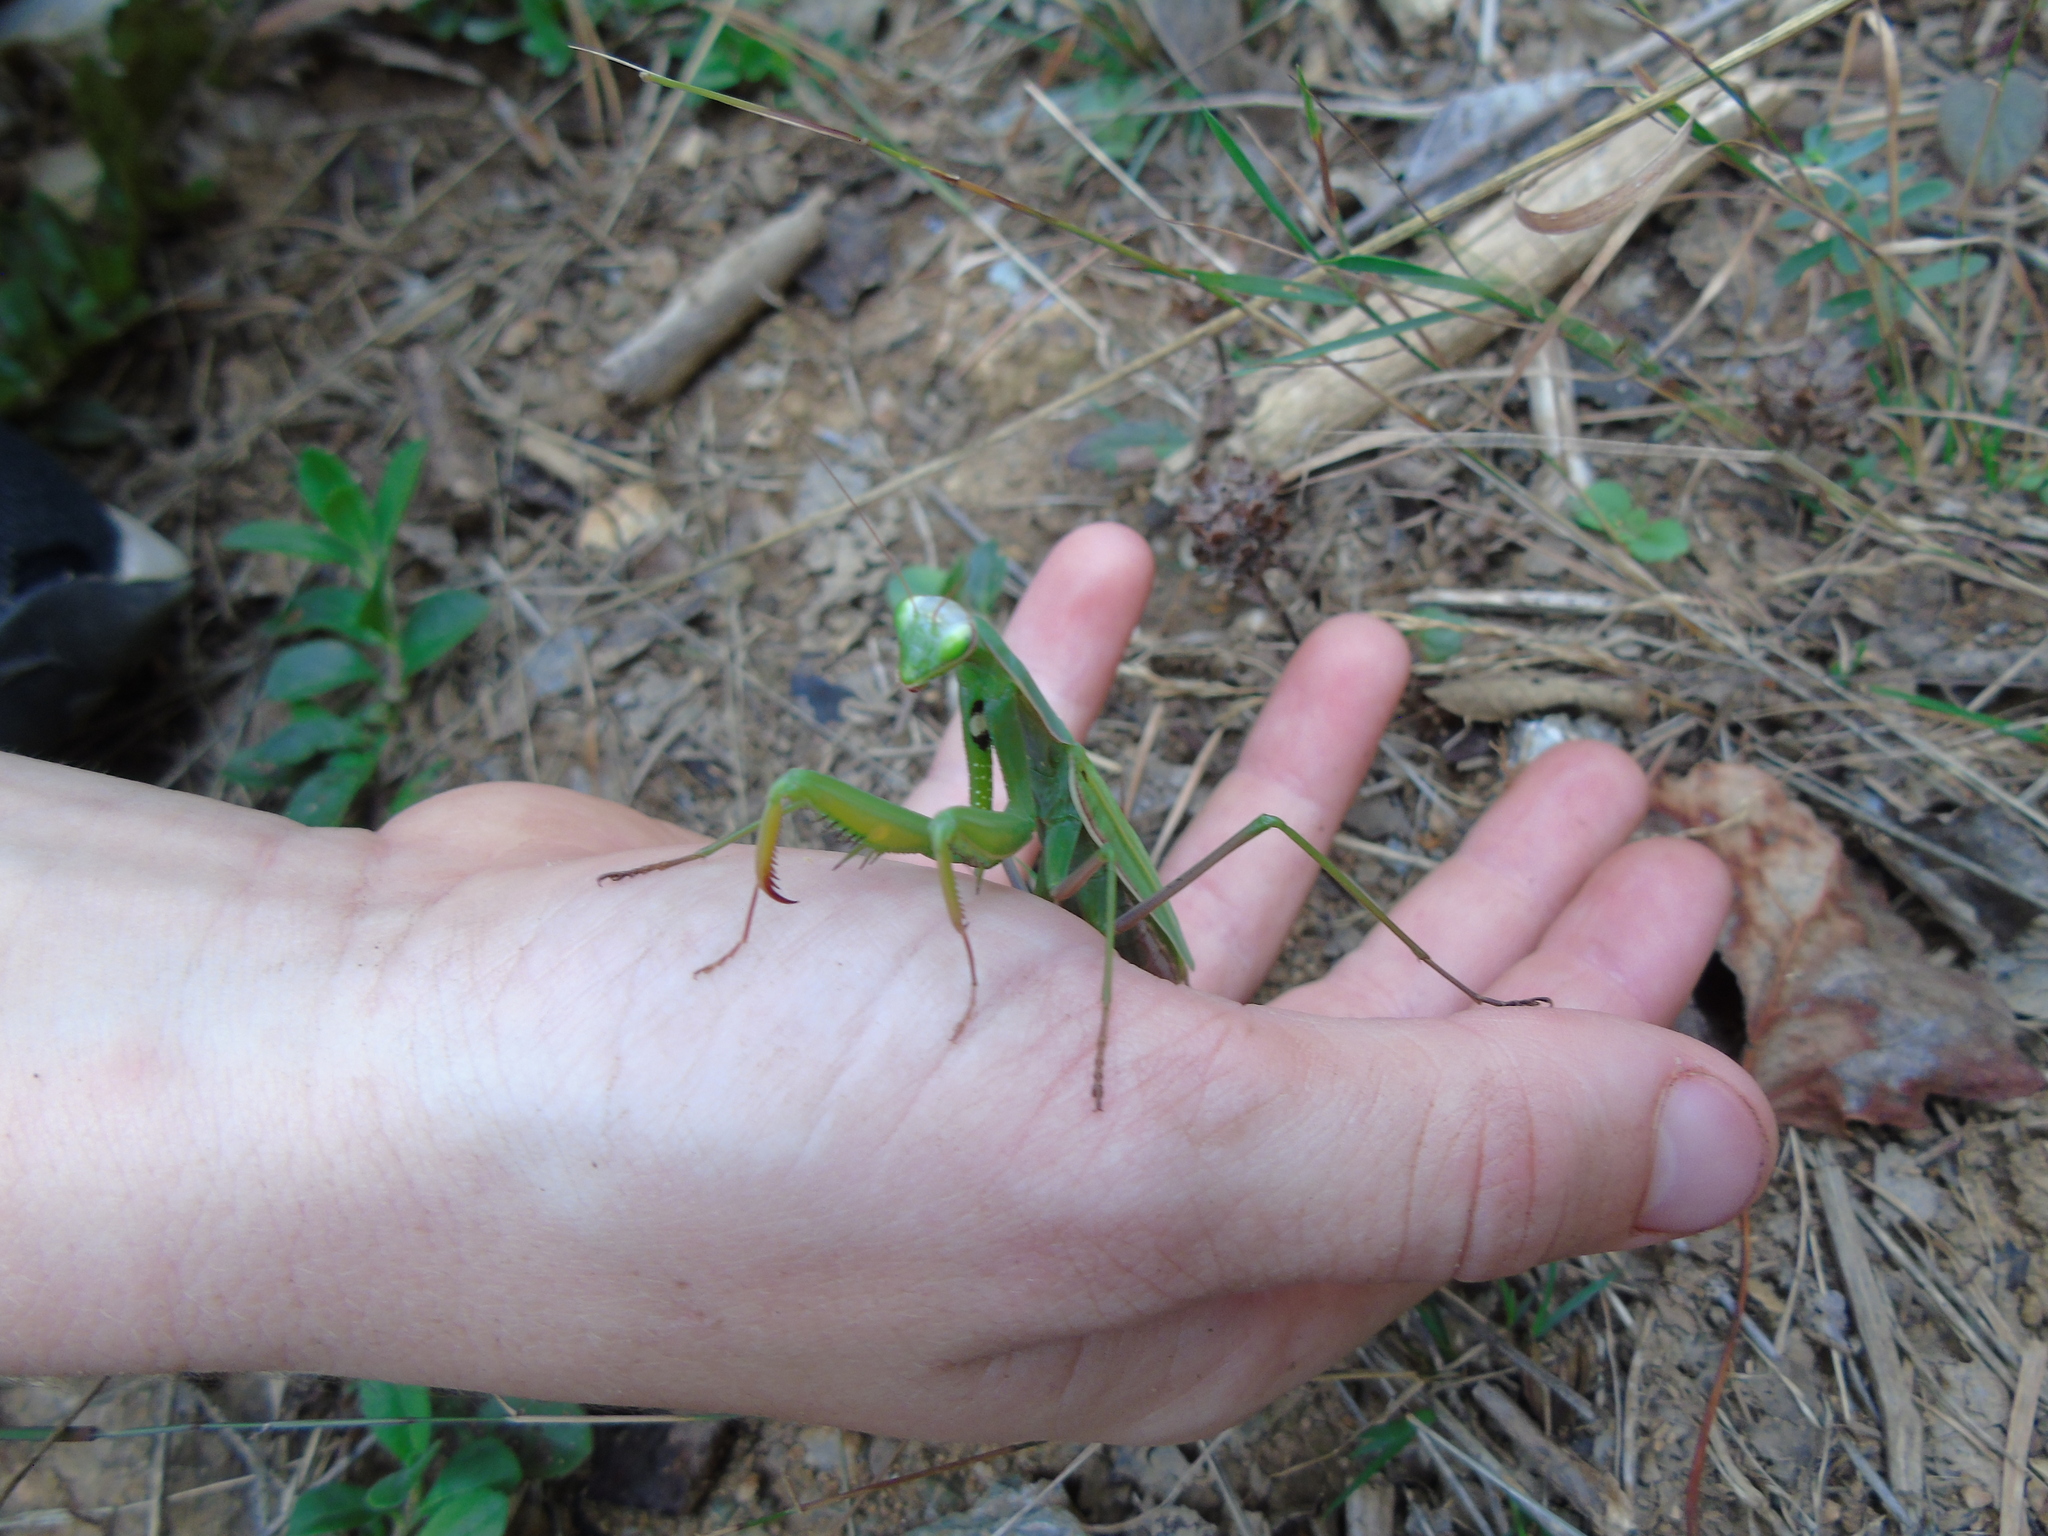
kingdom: Animalia
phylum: Arthropoda
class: Insecta
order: Mantodea
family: Mantidae
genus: Mantis
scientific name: Mantis religiosa
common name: Praying mantis
